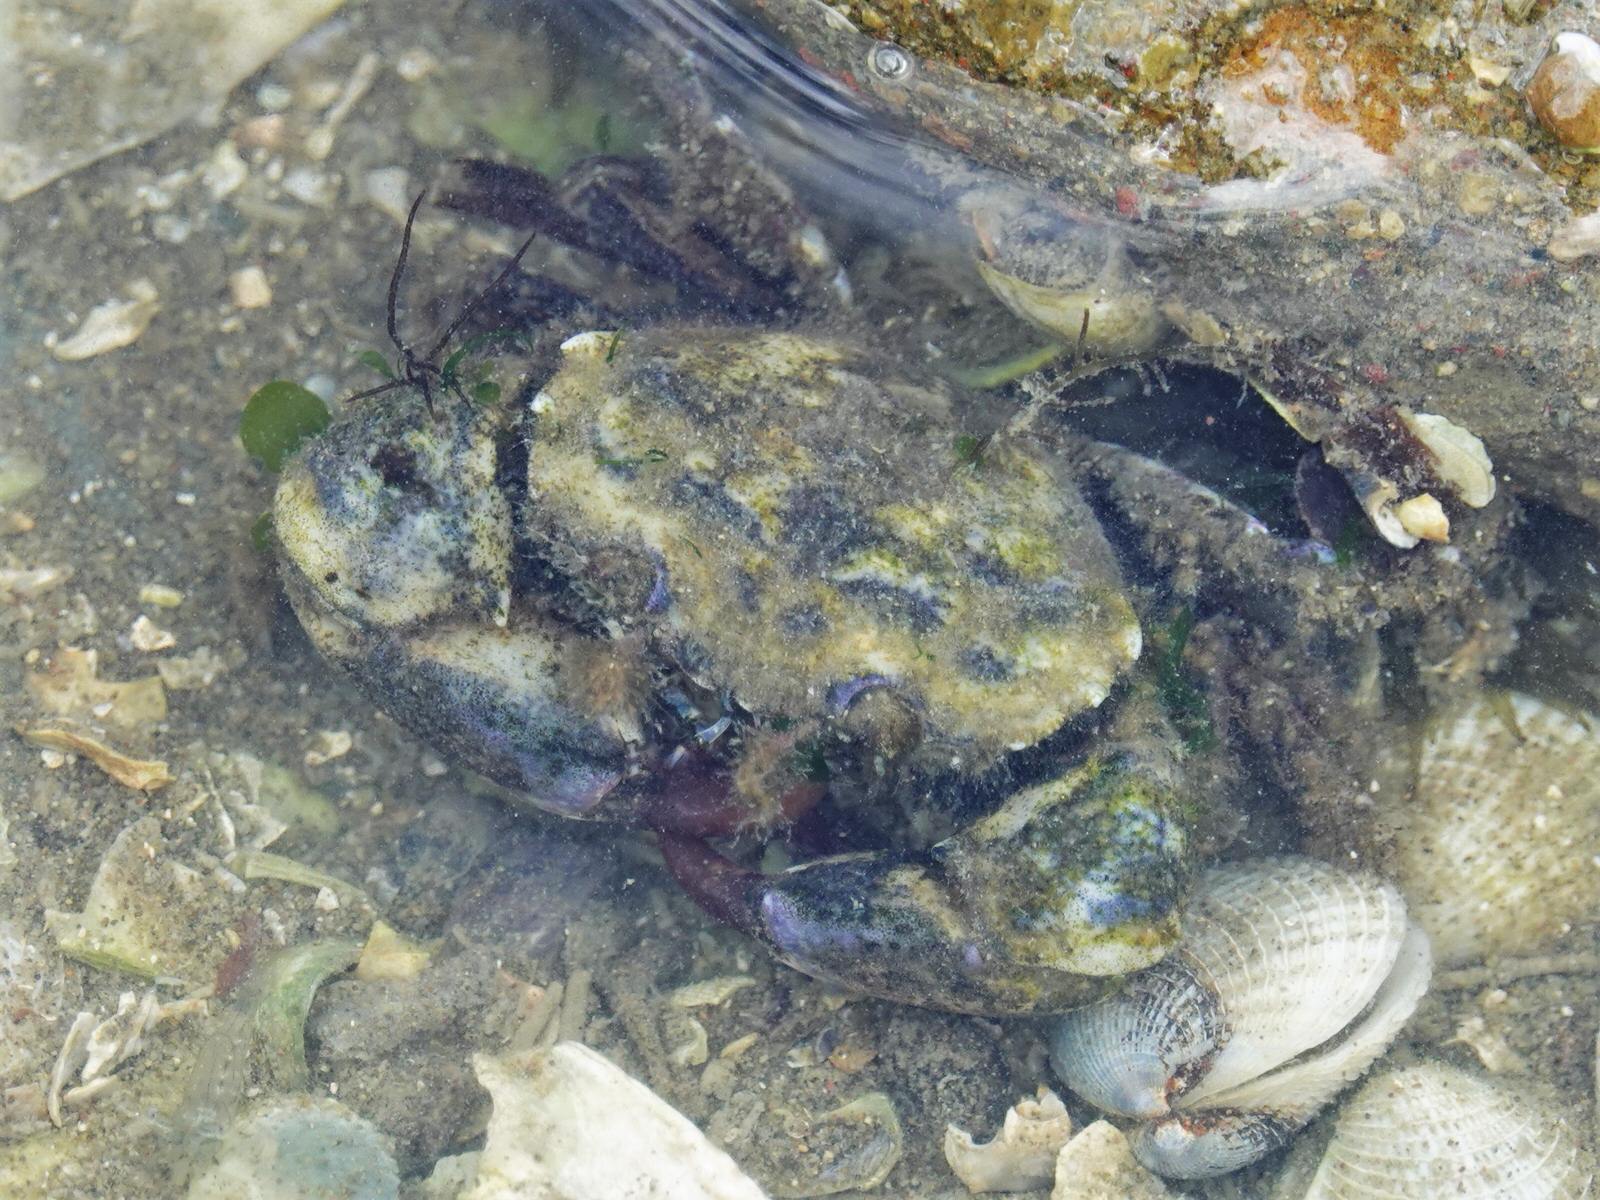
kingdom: Animalia
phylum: Arthropoda
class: Malacostraca
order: Decapoda
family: Pilumnidae
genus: Pilumnopeus
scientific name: Pilumnopeus serratifrons
